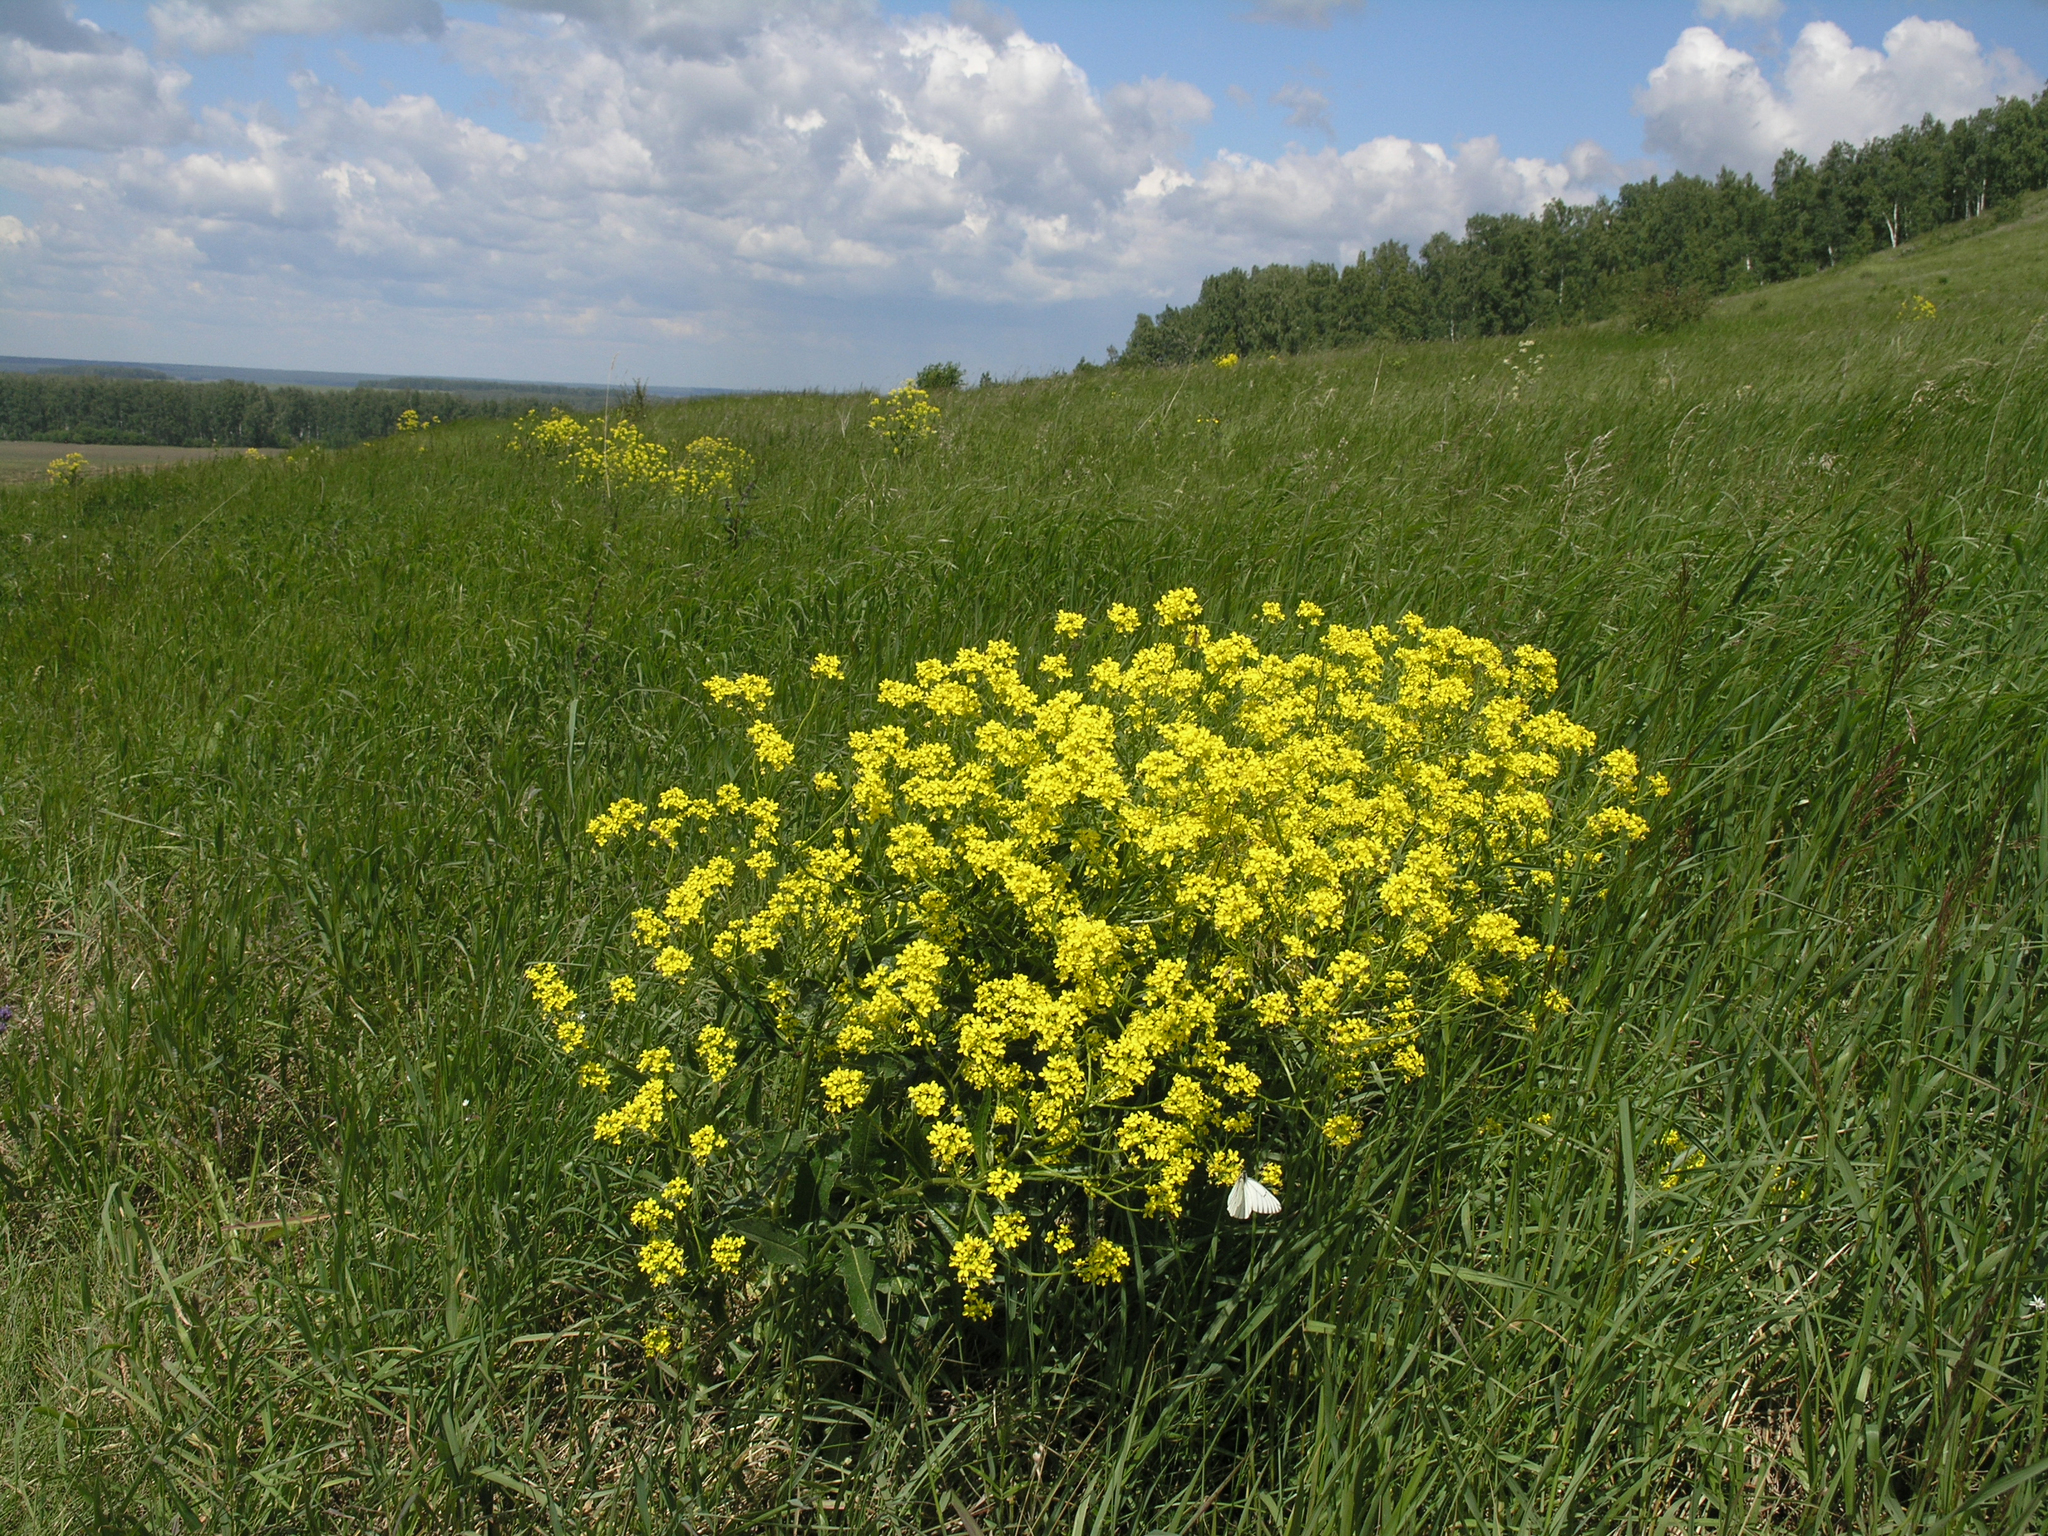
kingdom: Plantae
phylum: Tracheophyta
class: Magnoliopsida
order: Brassicales
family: Brassicaceae
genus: Bunias
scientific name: Bunias orientalis
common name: Warty-cabbage
